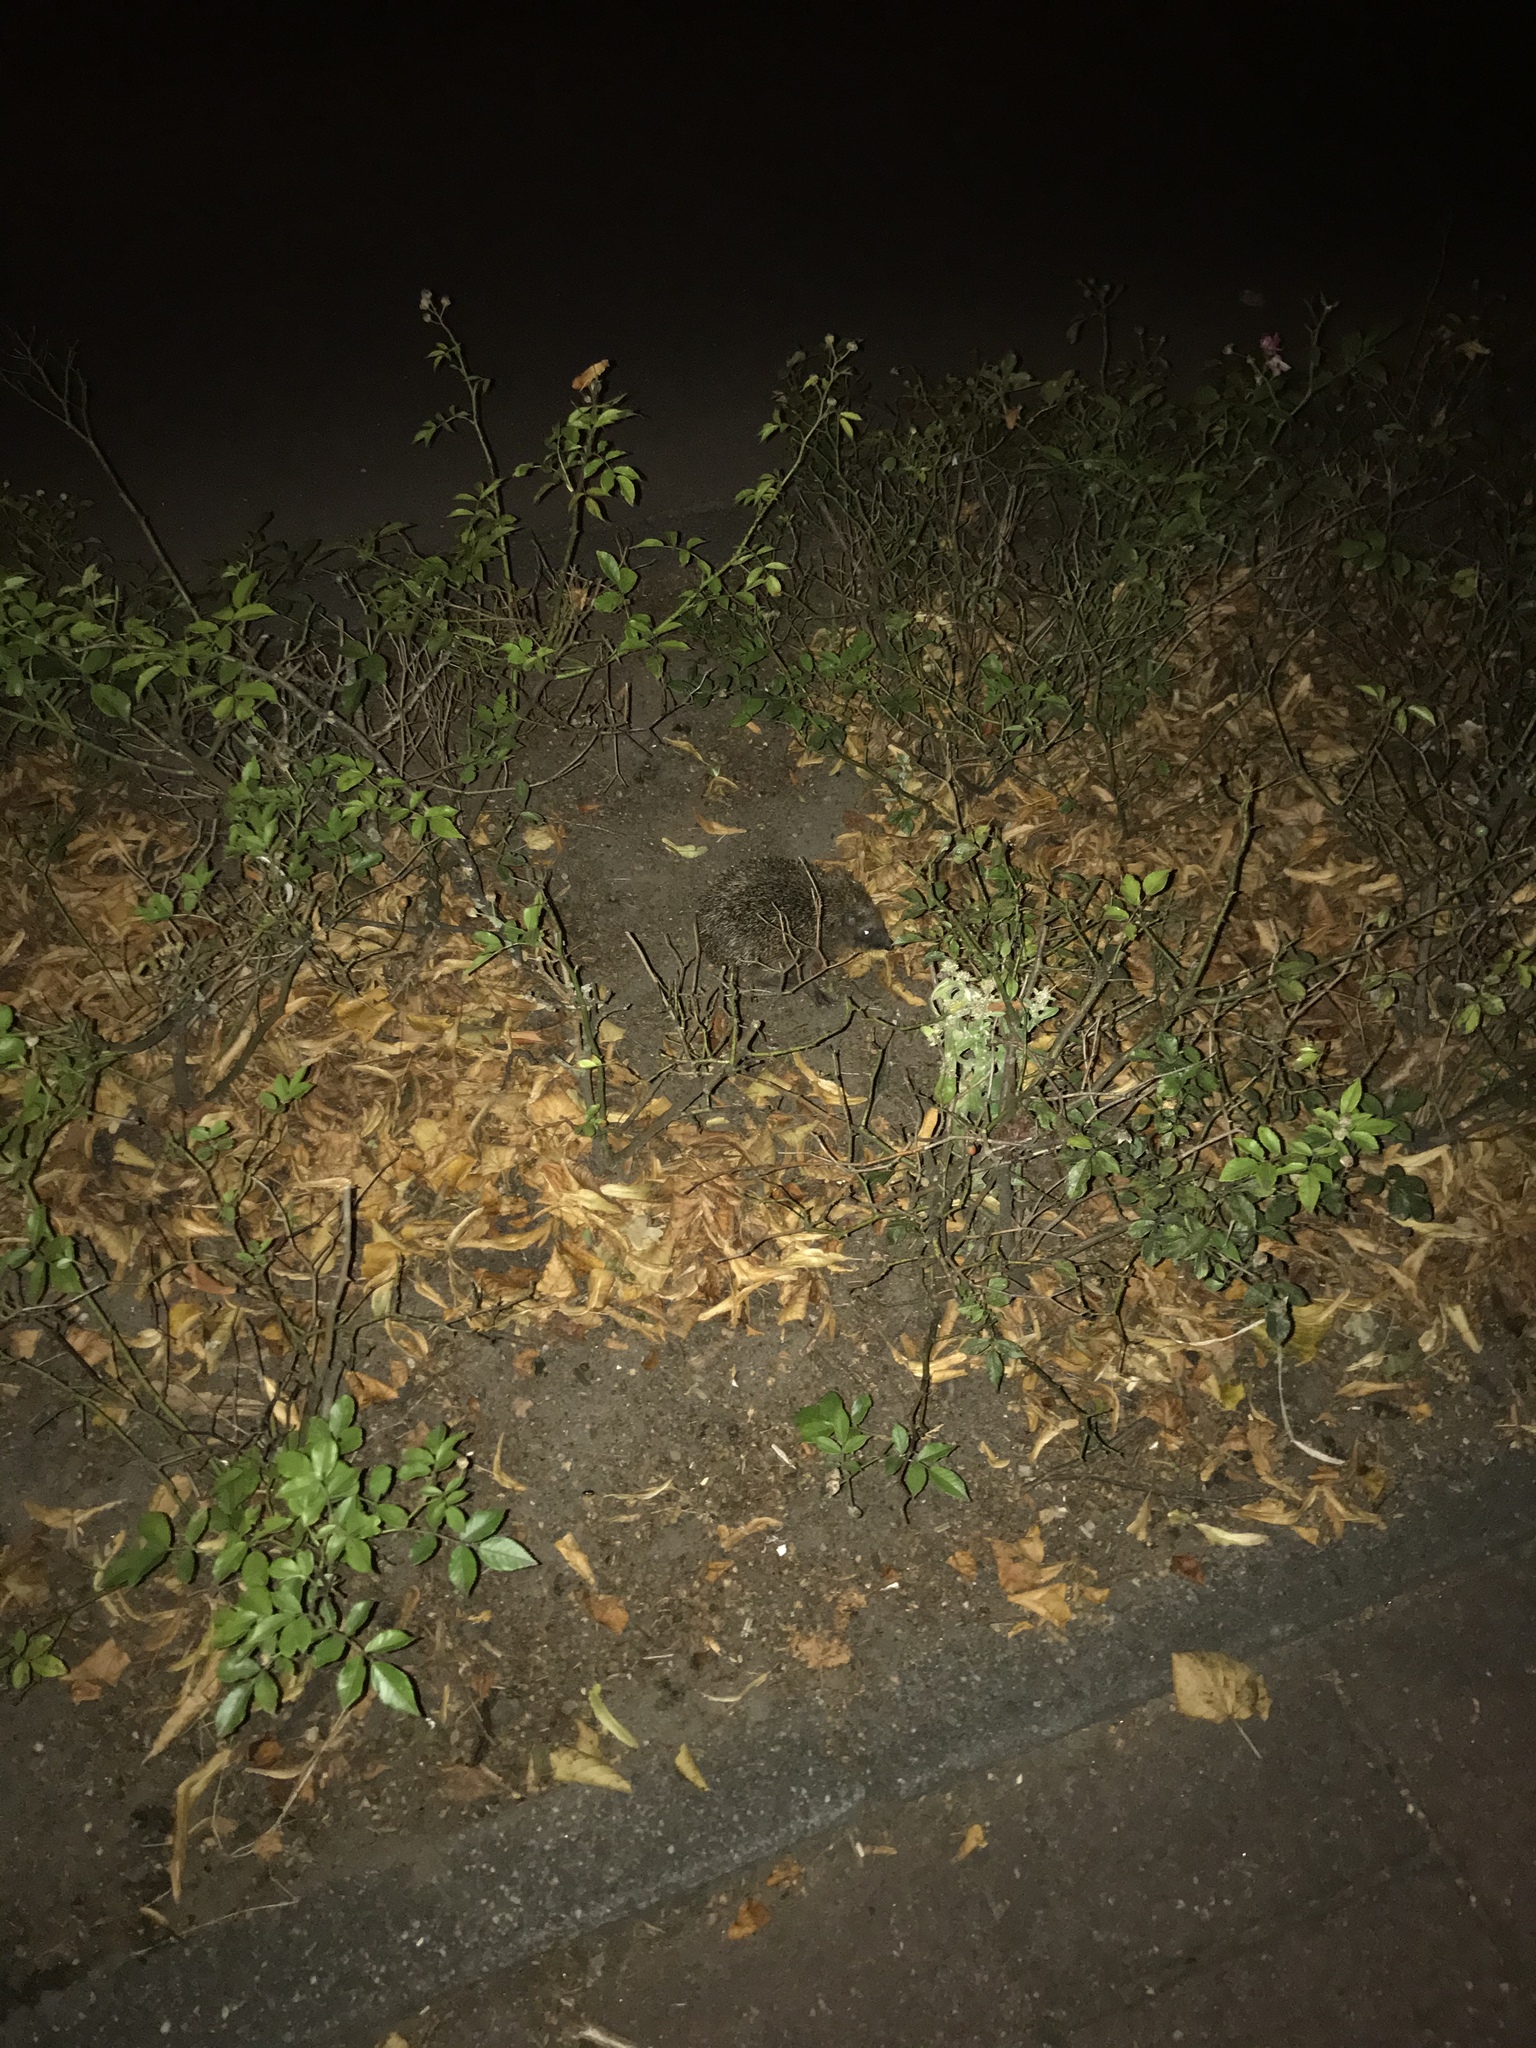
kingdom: Animalia
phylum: Chordata
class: Mammalia
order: Erinaceomorpha
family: Erinaceidae
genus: Erinaceus
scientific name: Erinaceus europaeus
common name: West european hedgehog
